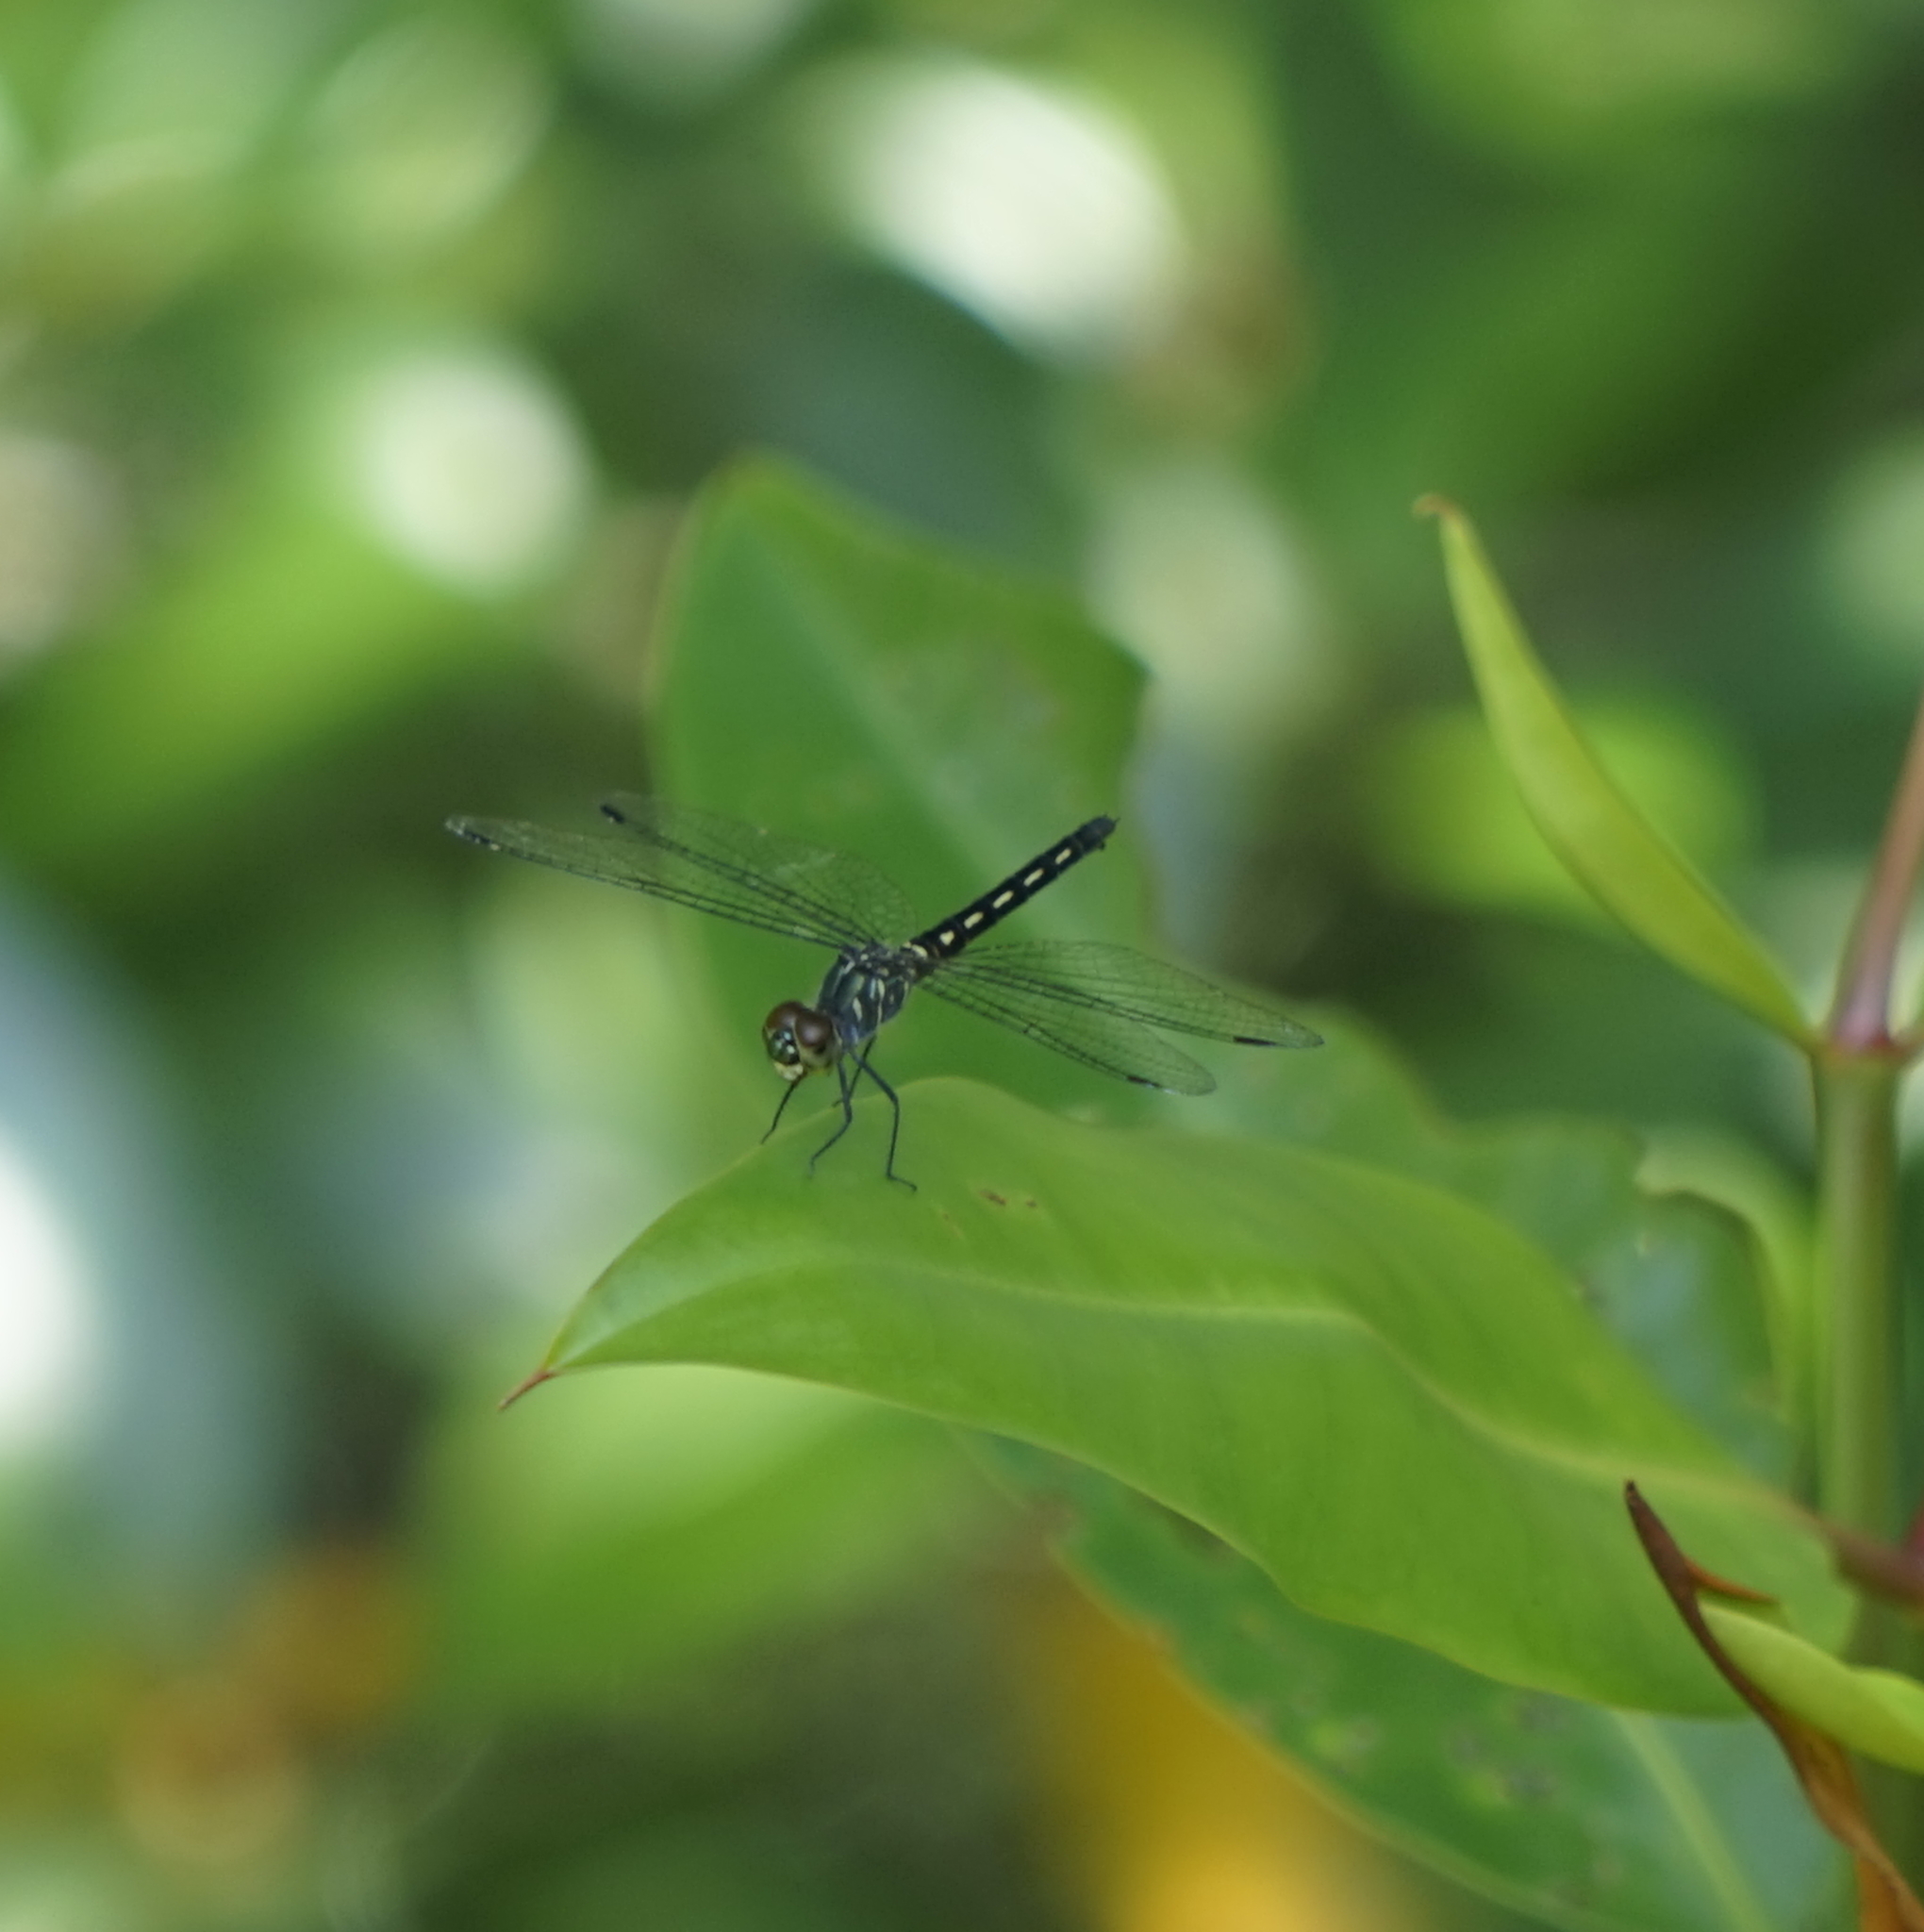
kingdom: Animalia
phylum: Arthropoda
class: Insecta
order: Odonata
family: Libellulidae
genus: Raphismia
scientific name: Raphismia bispina
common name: Mangrove dwarf
